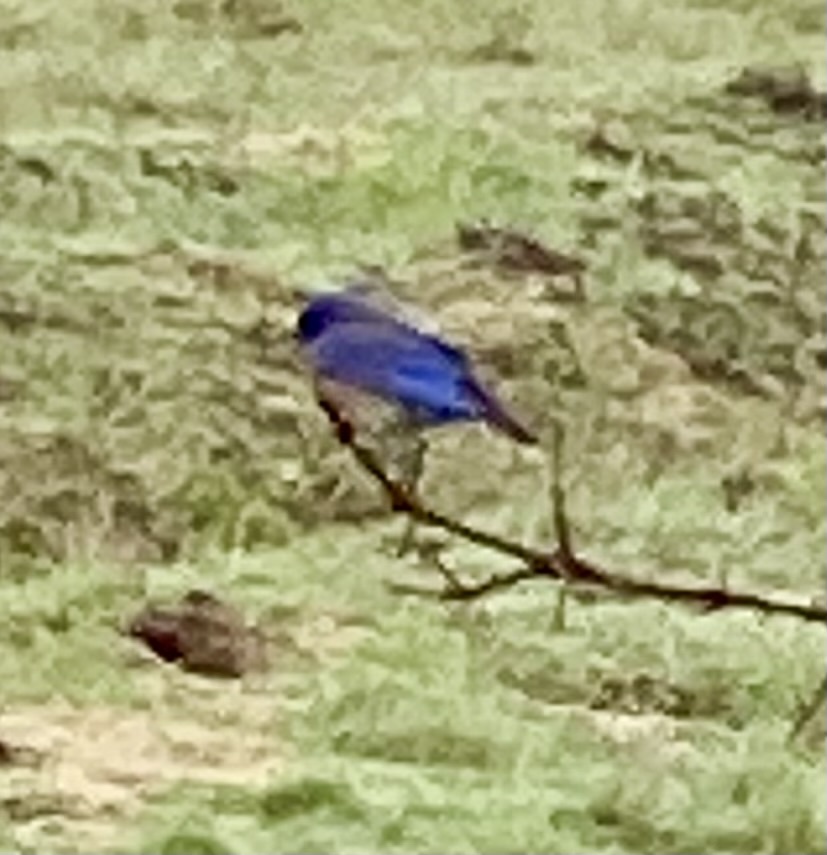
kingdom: Animalia
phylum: Chordata
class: Aves
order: Passeriformes
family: Turdidae
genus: Sialia
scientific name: Sialia mexicana
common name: Western bluebird
